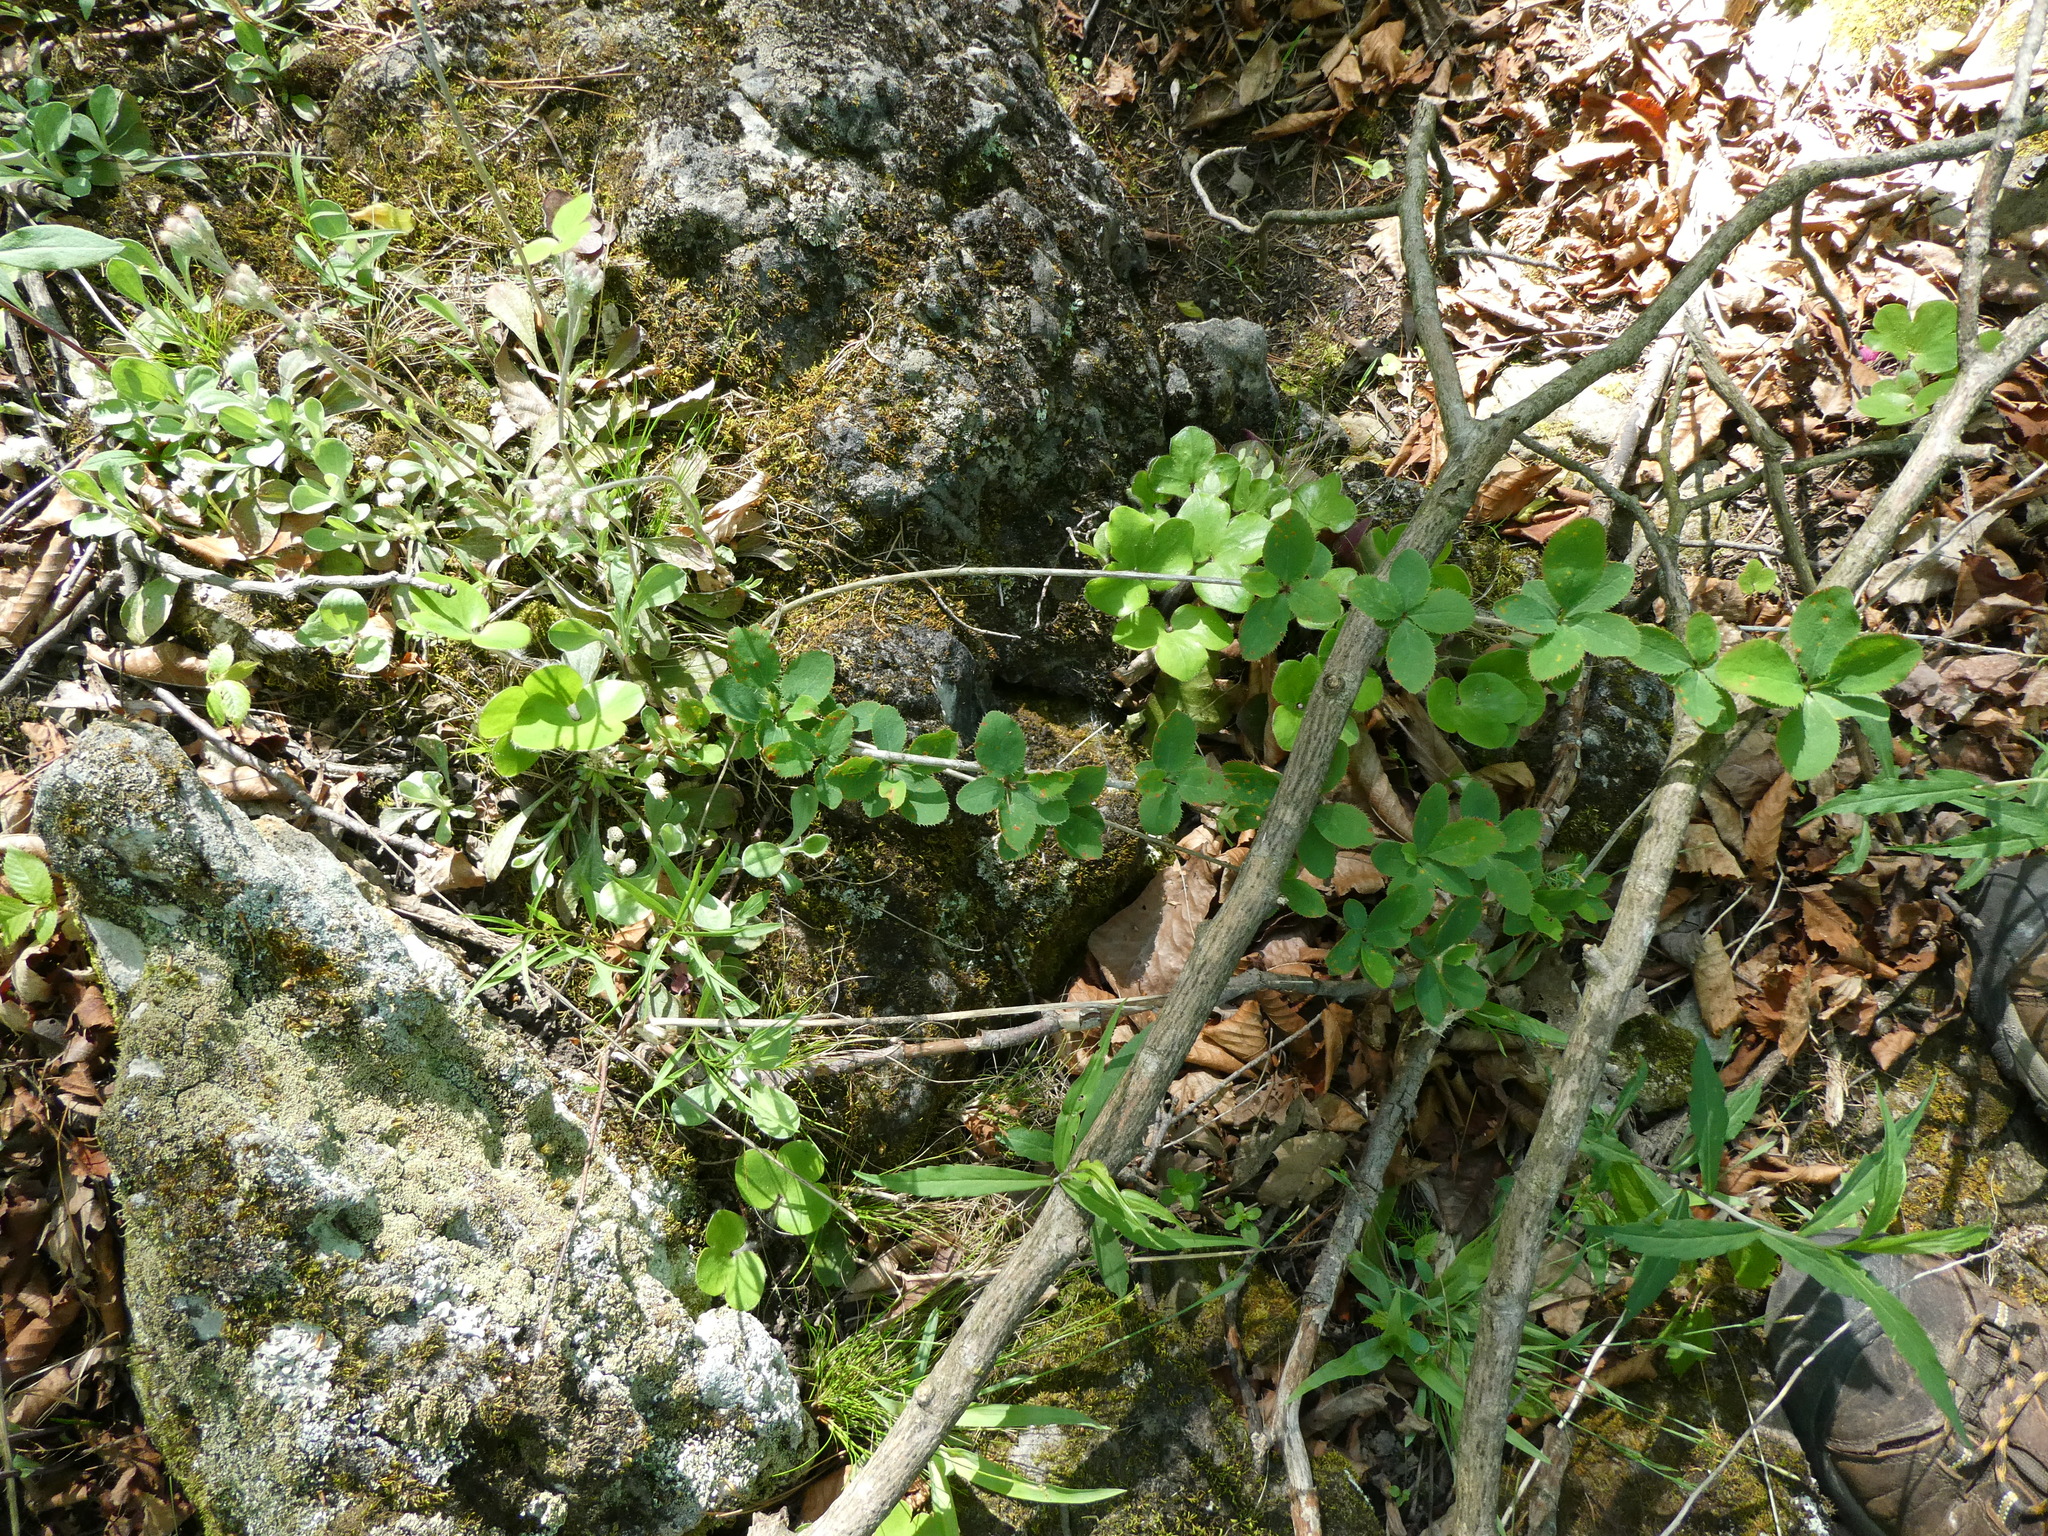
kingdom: Plantae
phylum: Tracheophyta
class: Magnoliopsida
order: Ranunculales
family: Berberidaceae
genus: Berberis
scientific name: Berberis vulgaris
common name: Barberry
